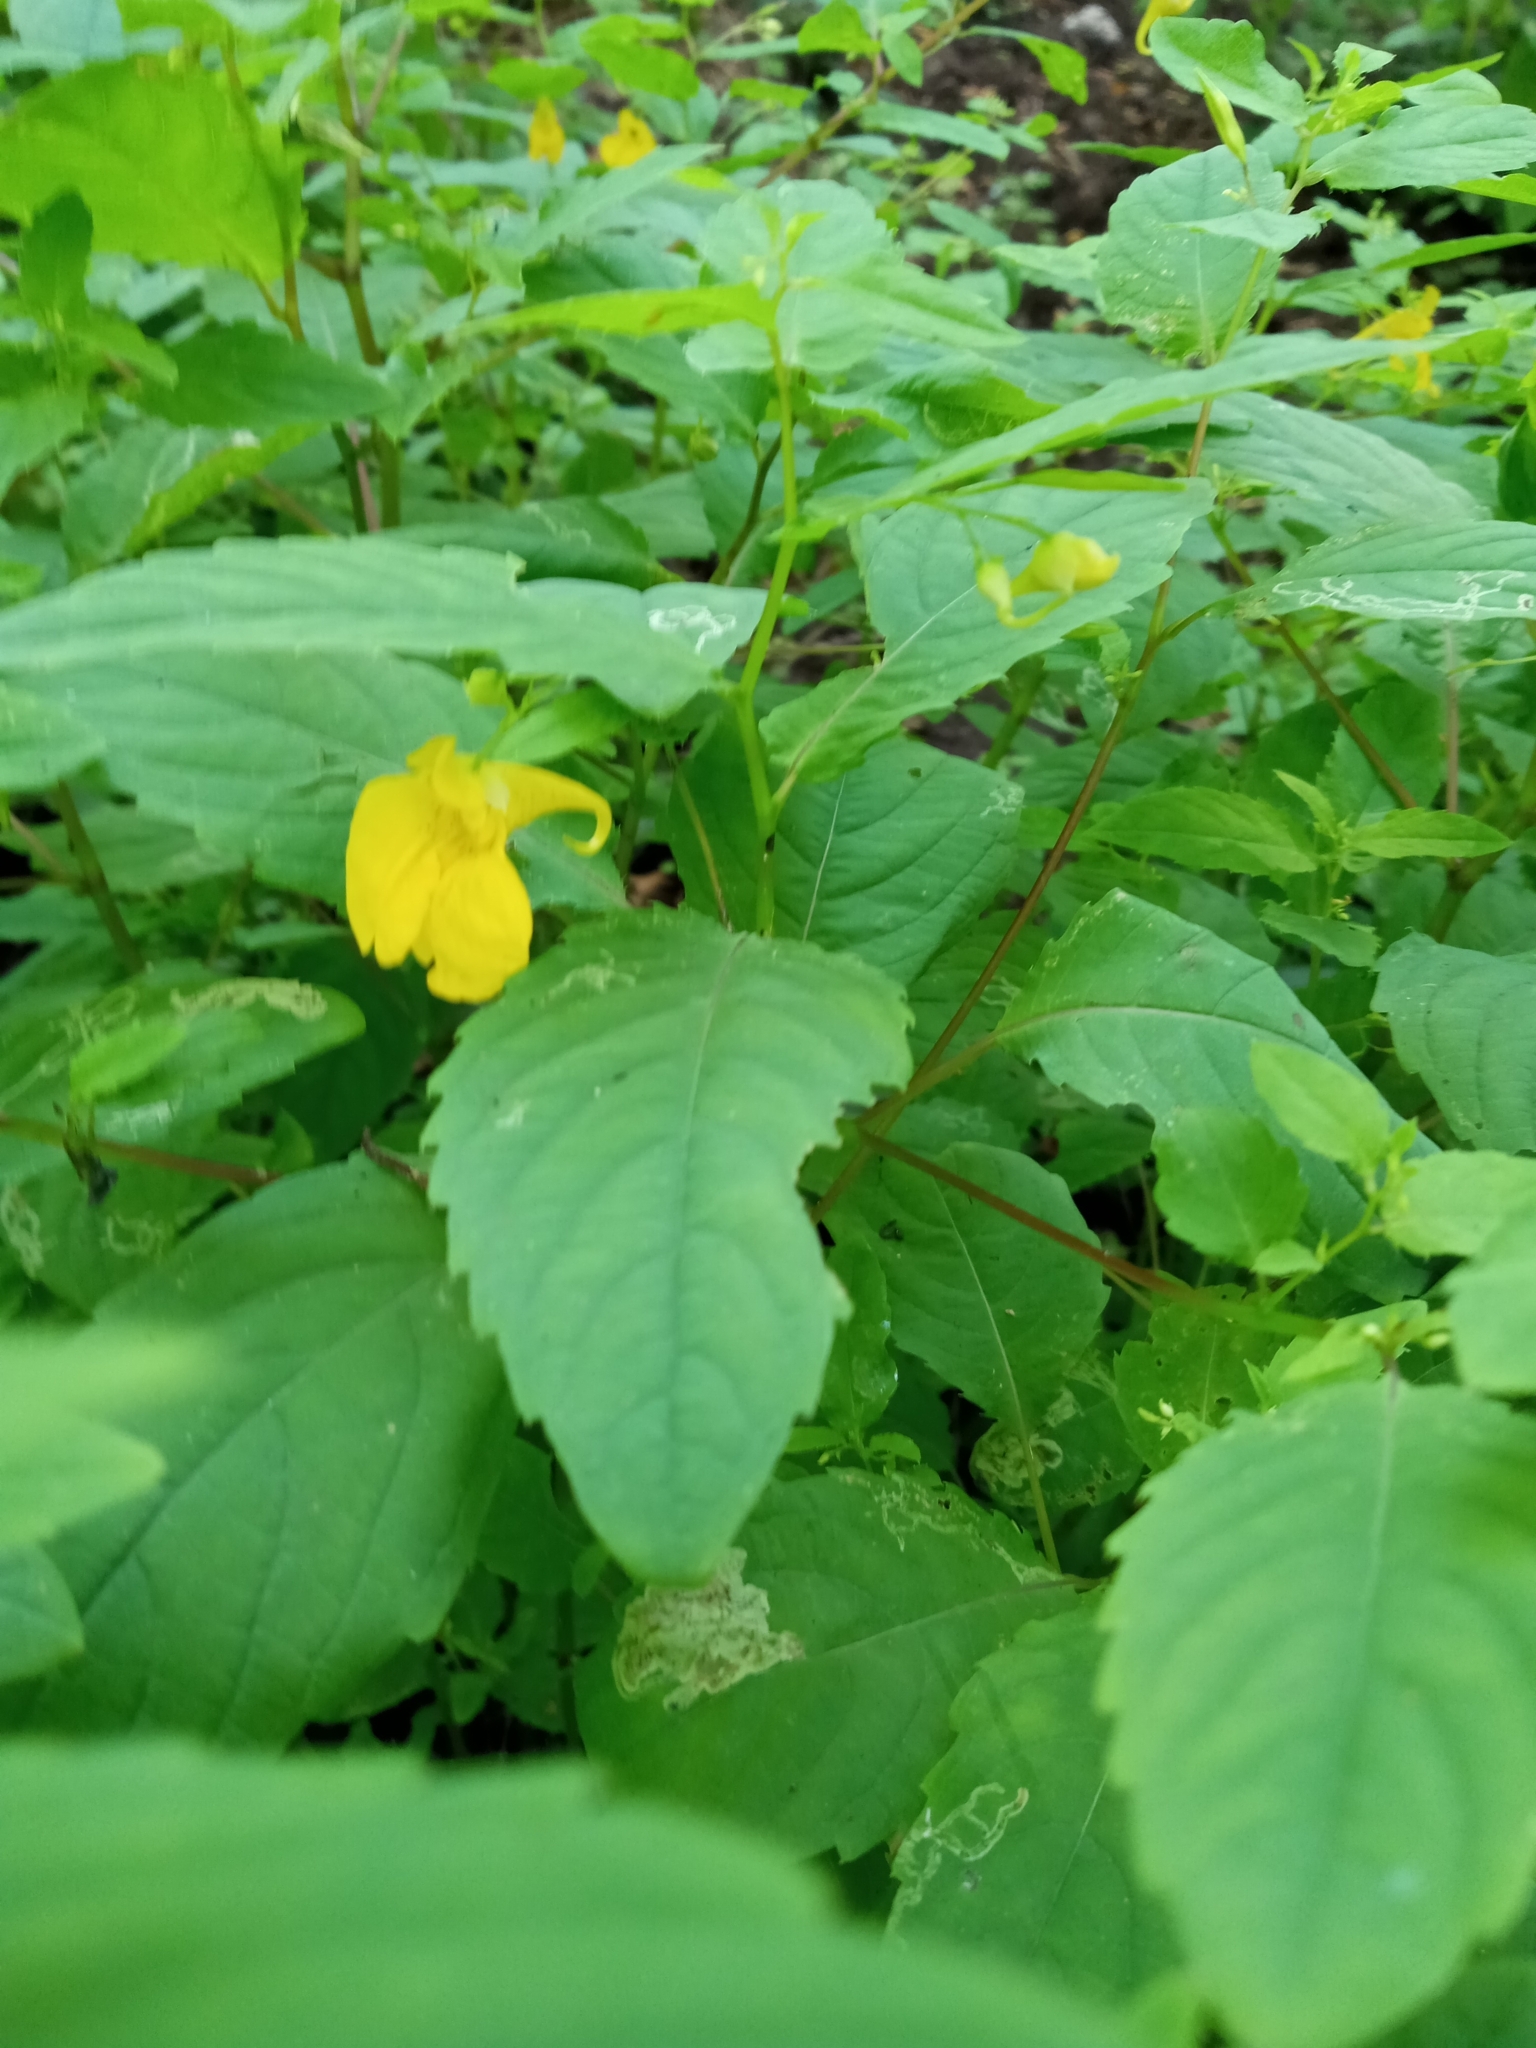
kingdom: Plantae
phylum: Tracheophyta
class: Magnoliopsida
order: Ericales
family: Balsaminaceae
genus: Impatiens
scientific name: Impatiens noli-tangere
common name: Touch-me-not balsam
